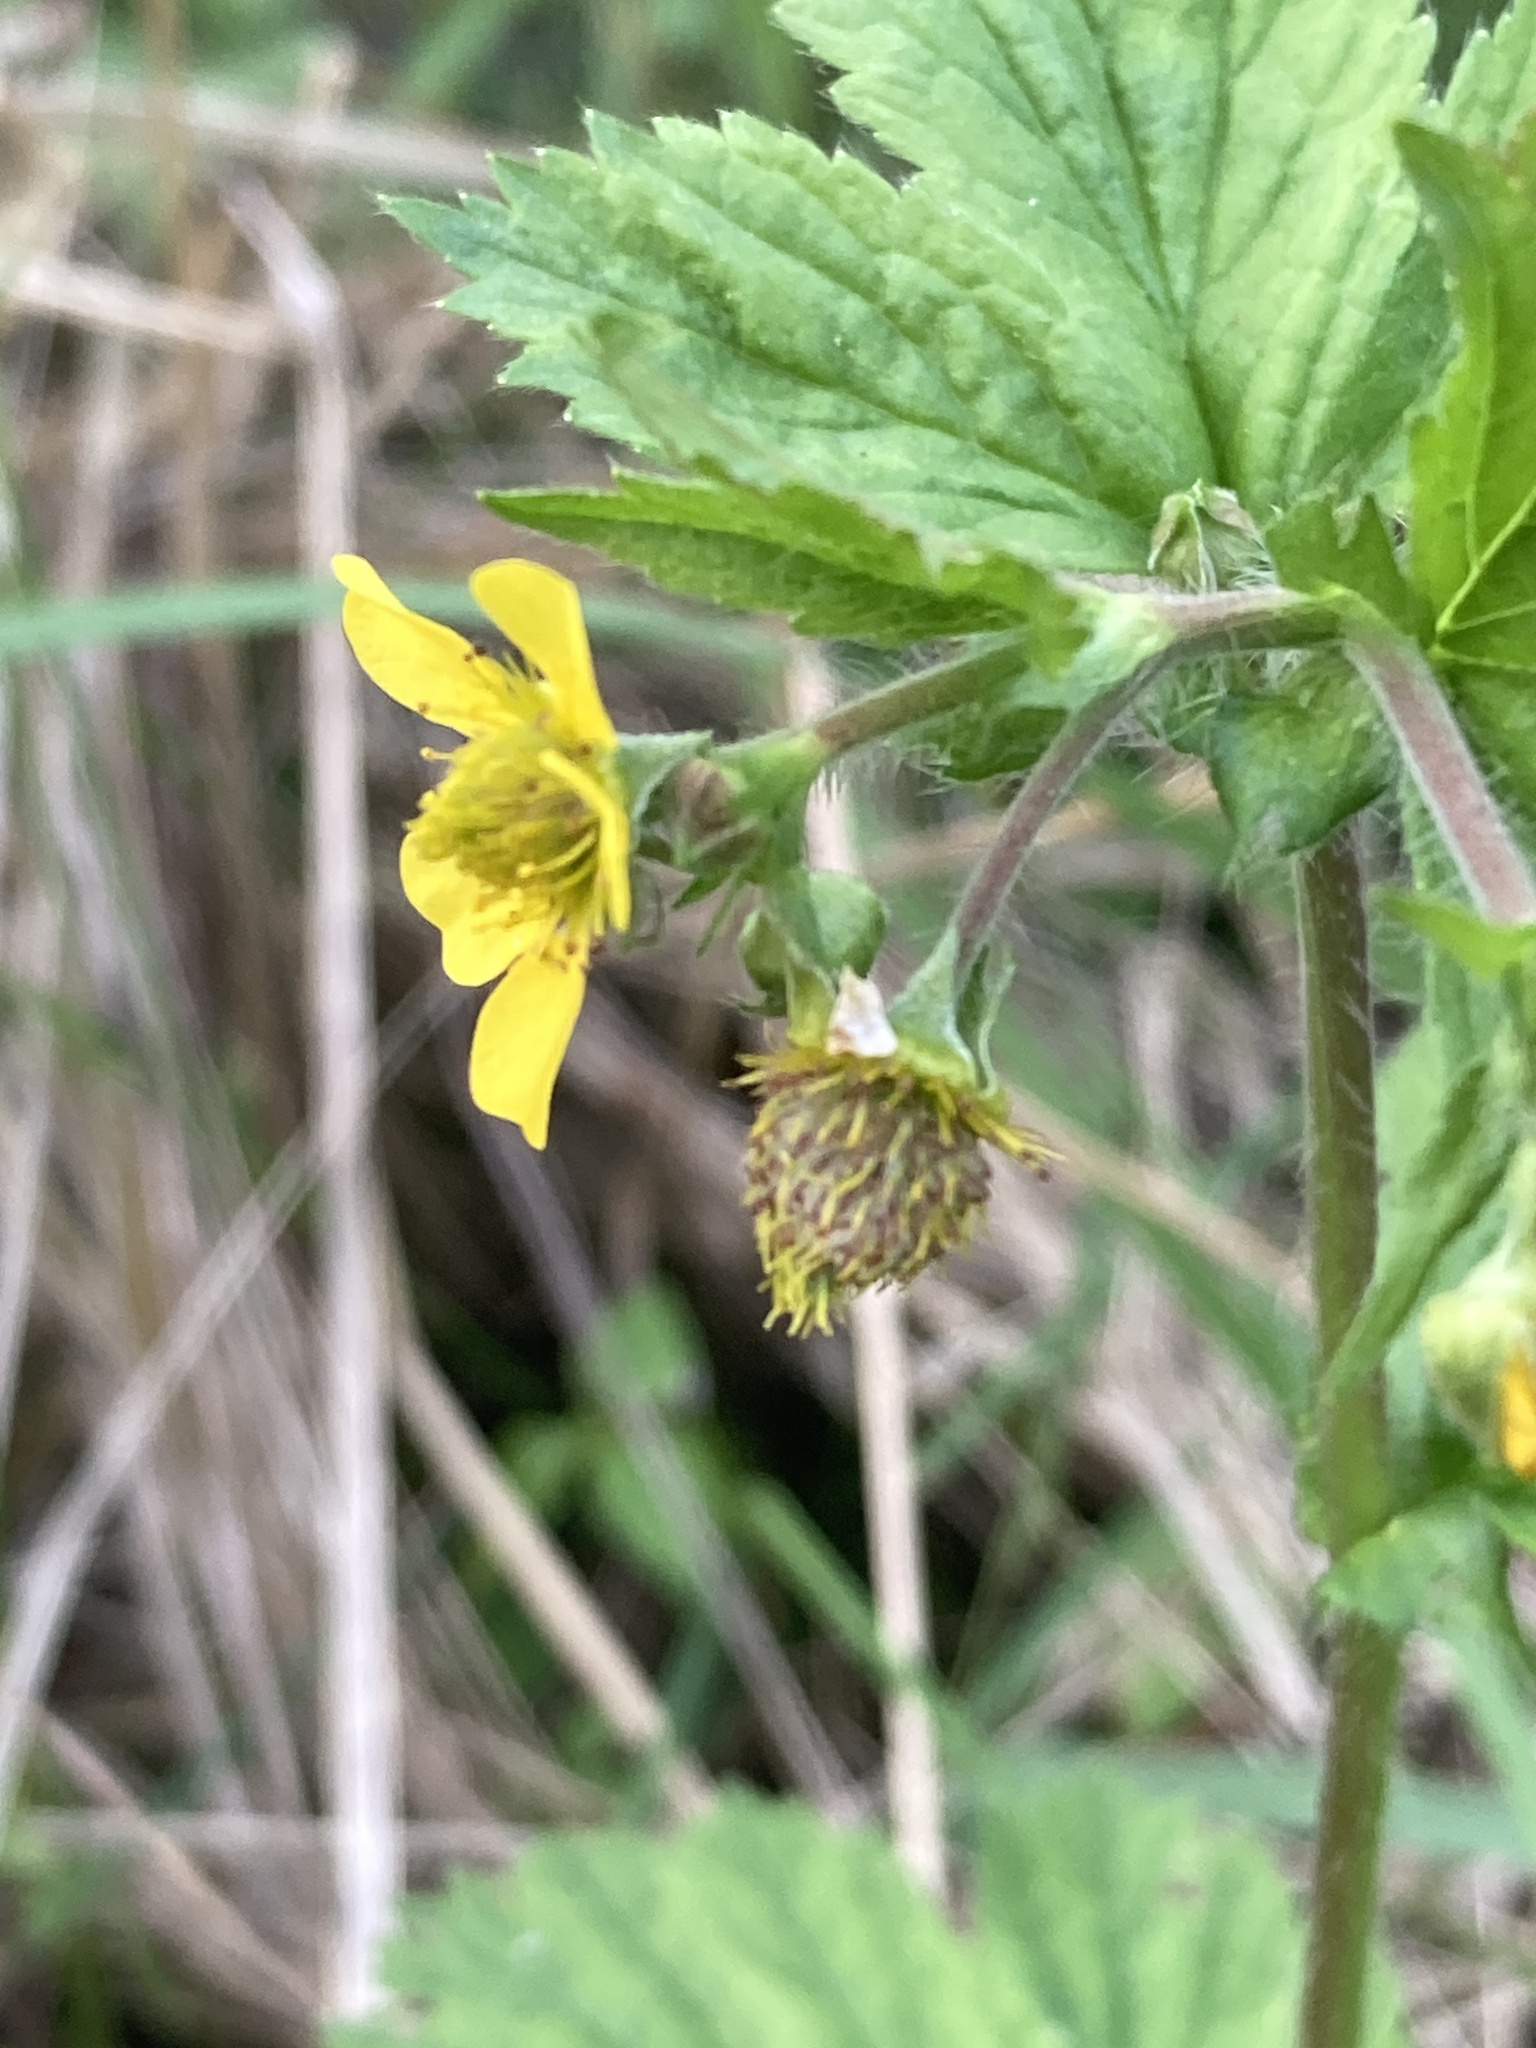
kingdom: Plantae
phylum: Tracheophyta
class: Magnoliopsida
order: Rosales
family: Rosaceae
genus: Geum
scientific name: Geum macrophyllum
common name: Large-leaved avens
